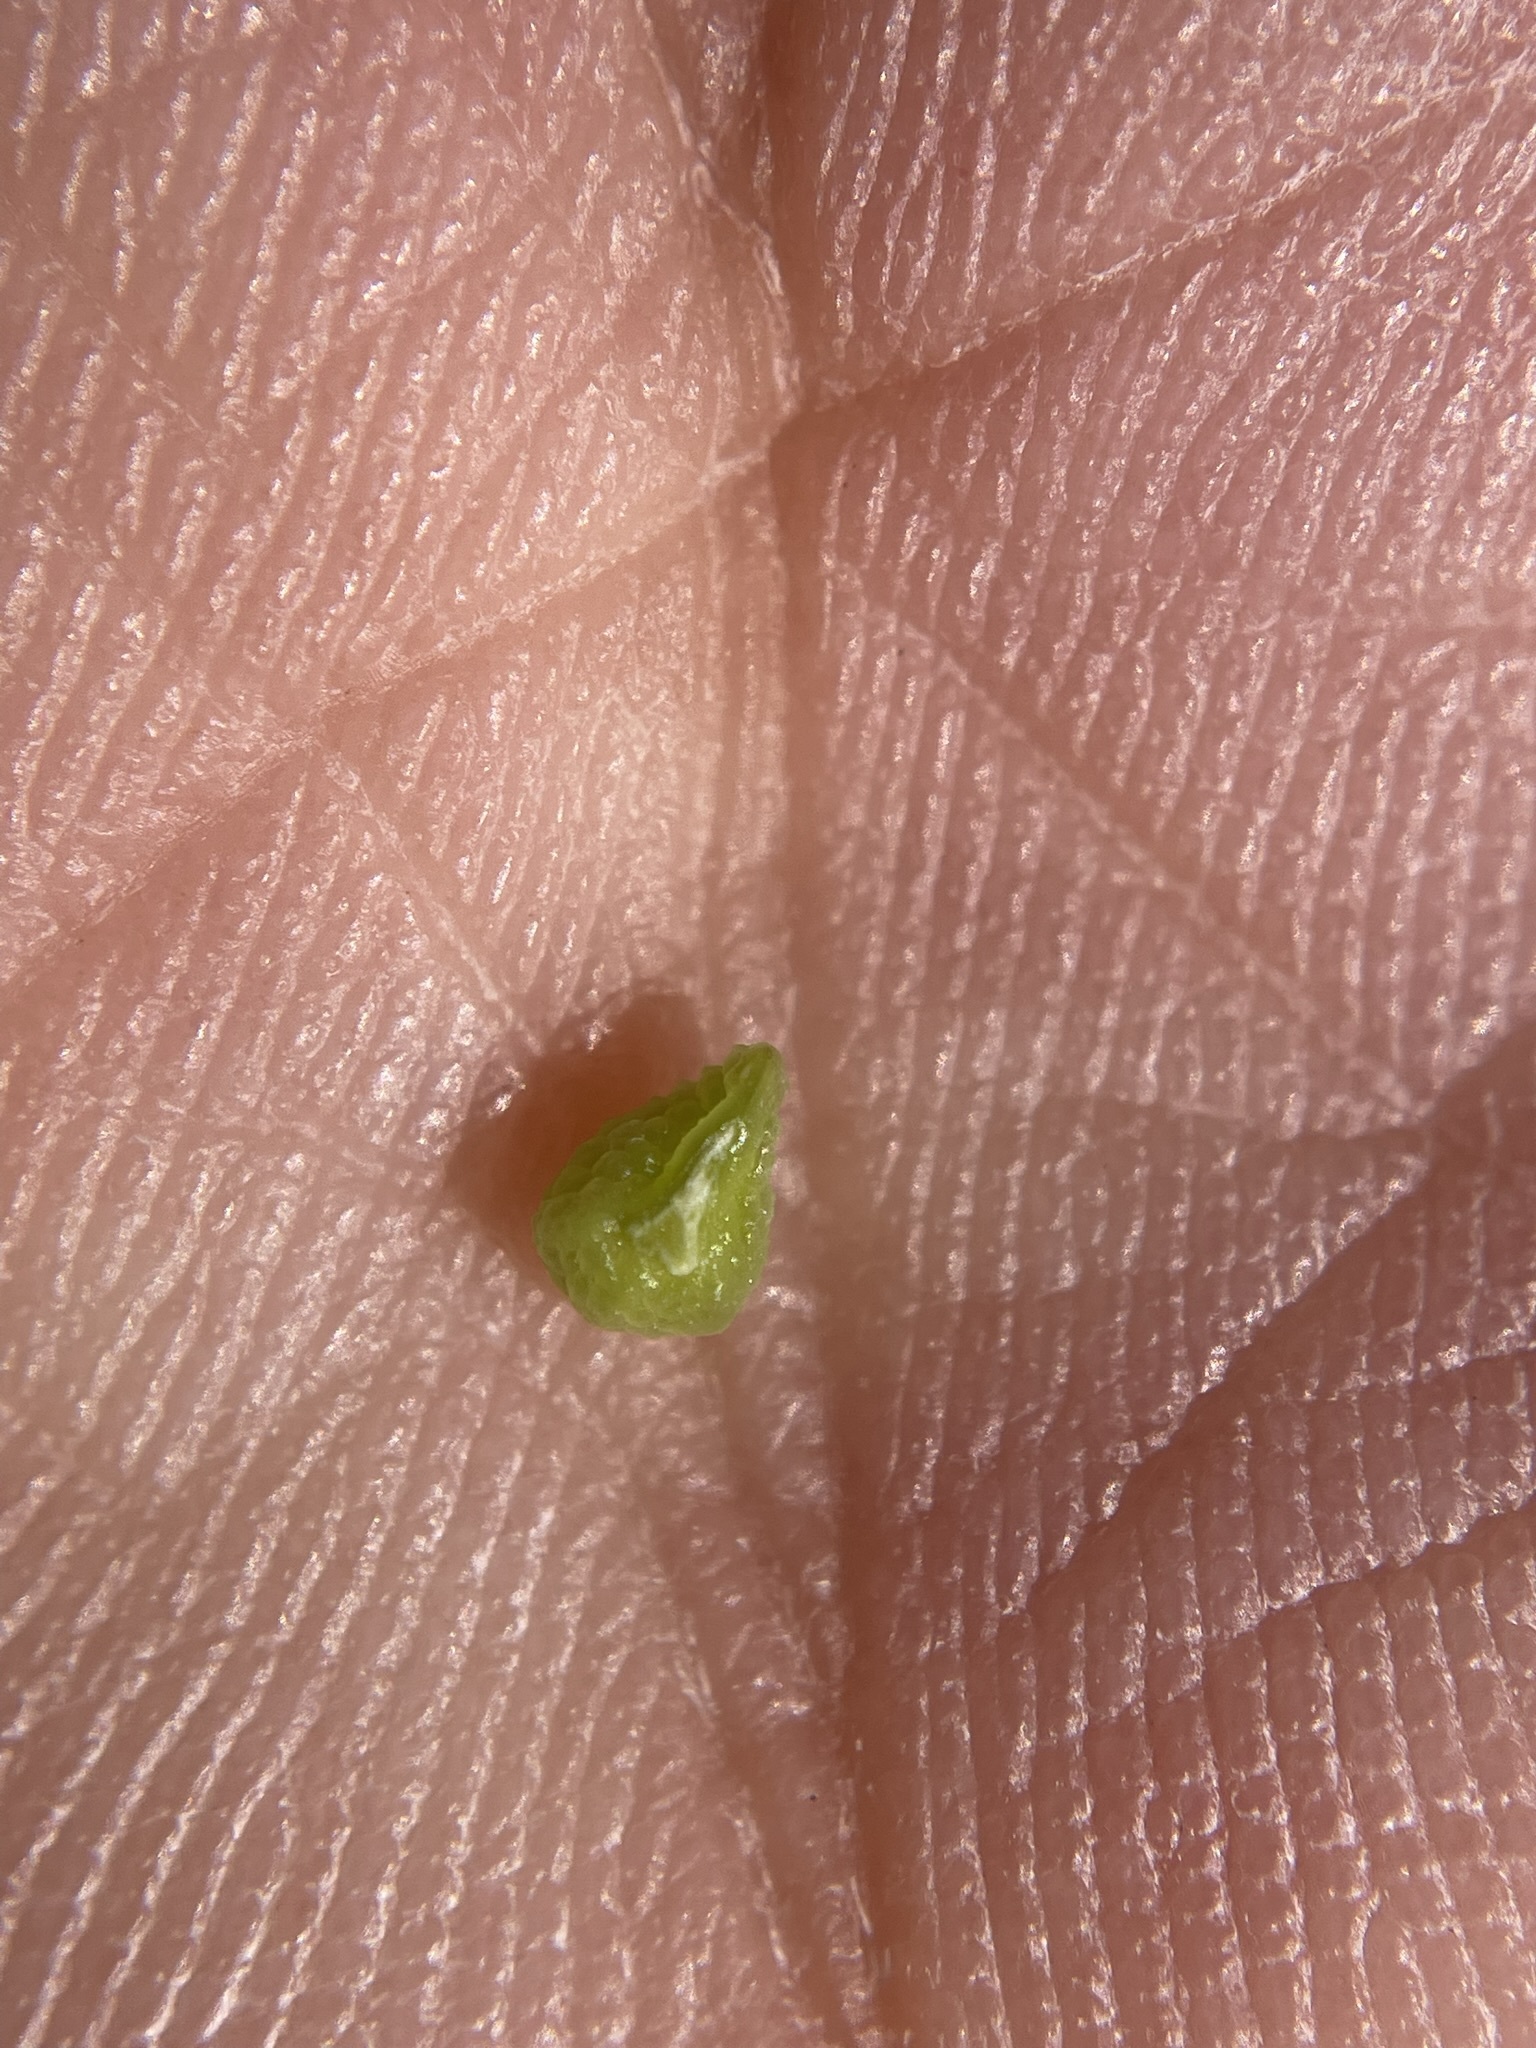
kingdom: Plantae
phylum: Tracheophyta
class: Magnoliopsida
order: Boraginales
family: Boraginaceae
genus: Simpsonanthus
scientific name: Simpsonanthus jonesii
